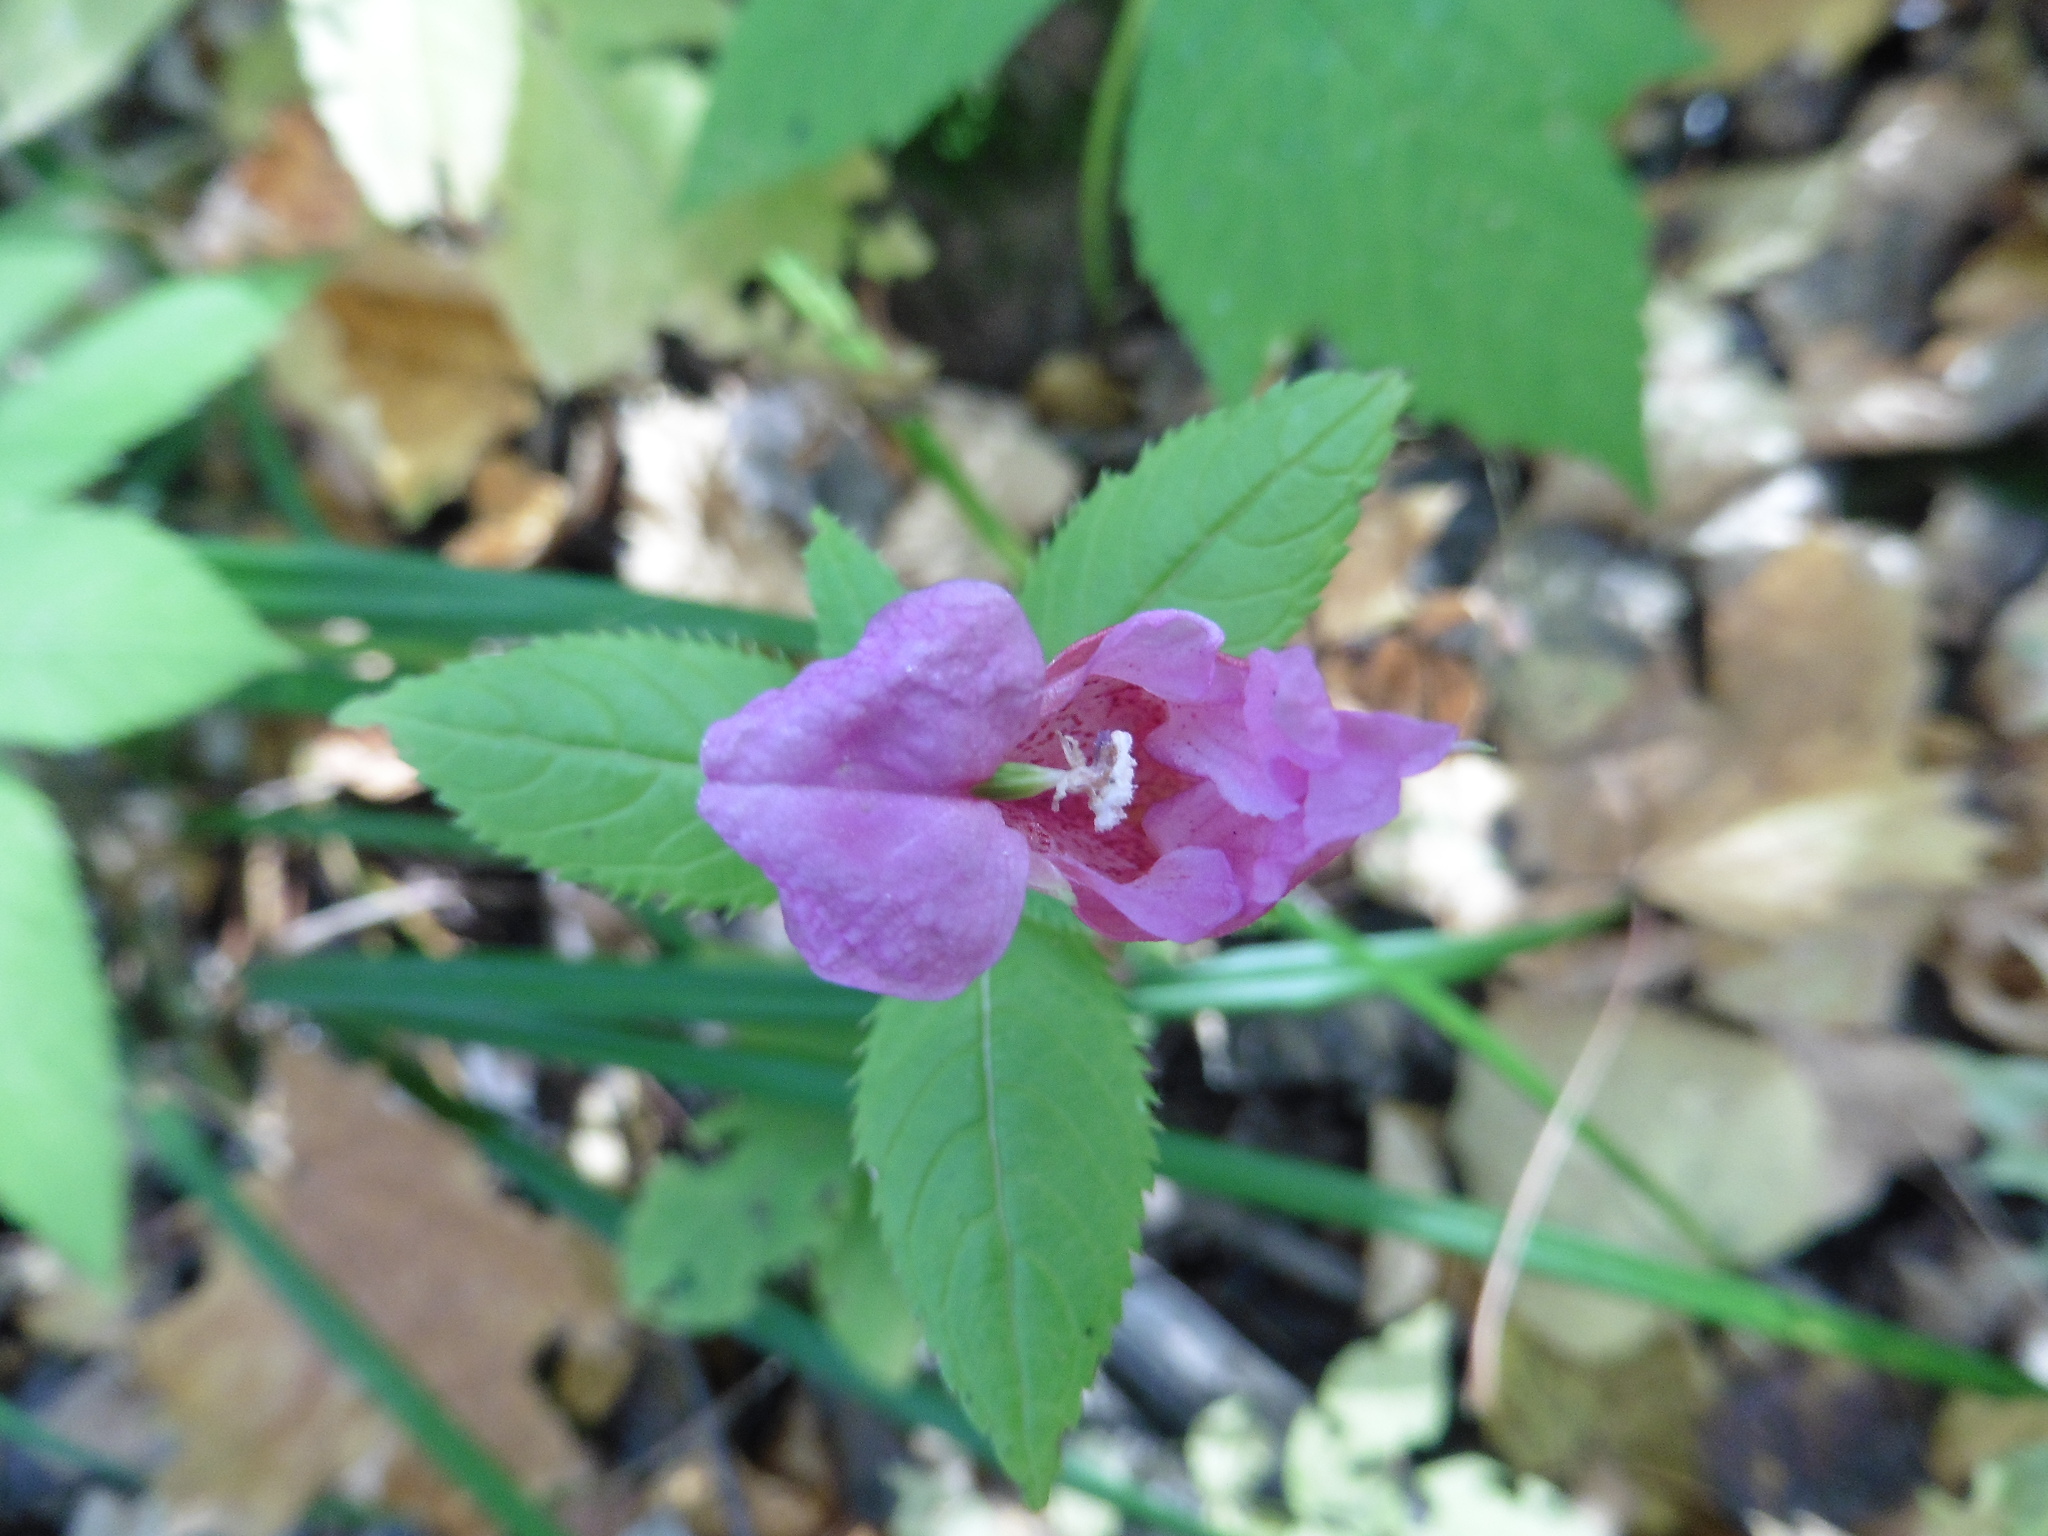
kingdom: Plantae
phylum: Tracheophyta
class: Magnoliopsida
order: Ericales
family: Balsaminaceae
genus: Impatiens
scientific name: Impatiens glandulifera
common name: Himalayan balsam
